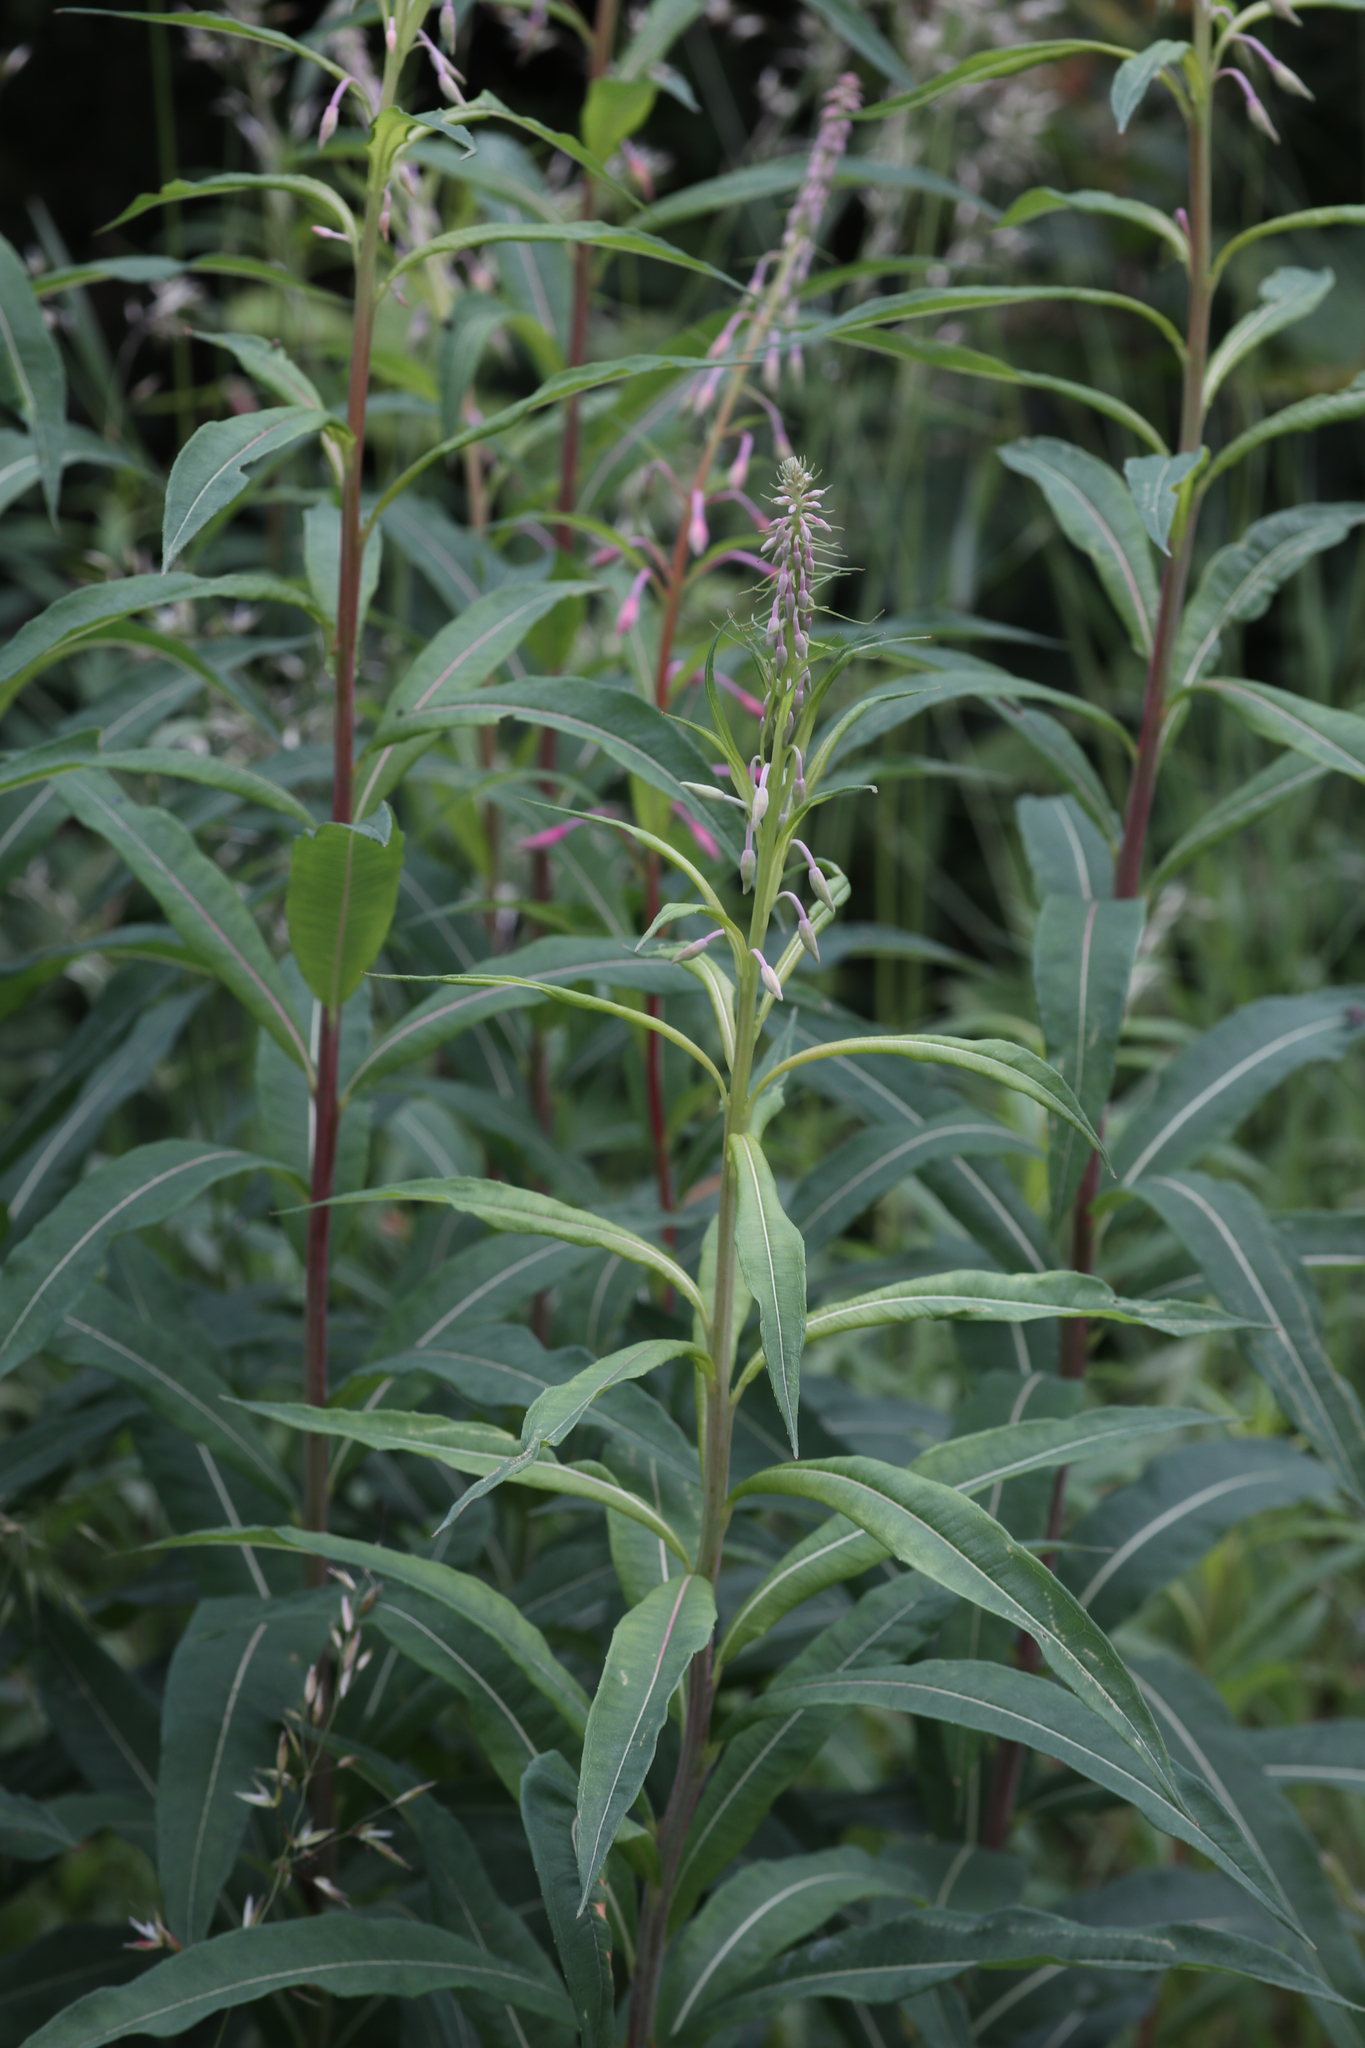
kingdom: Plantae
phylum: Tracheophyta
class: Magnoliopsida
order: Myrtales
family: Onagraceae
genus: Chamaenerion
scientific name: Chamaenerion angustifolium
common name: Fireweed
